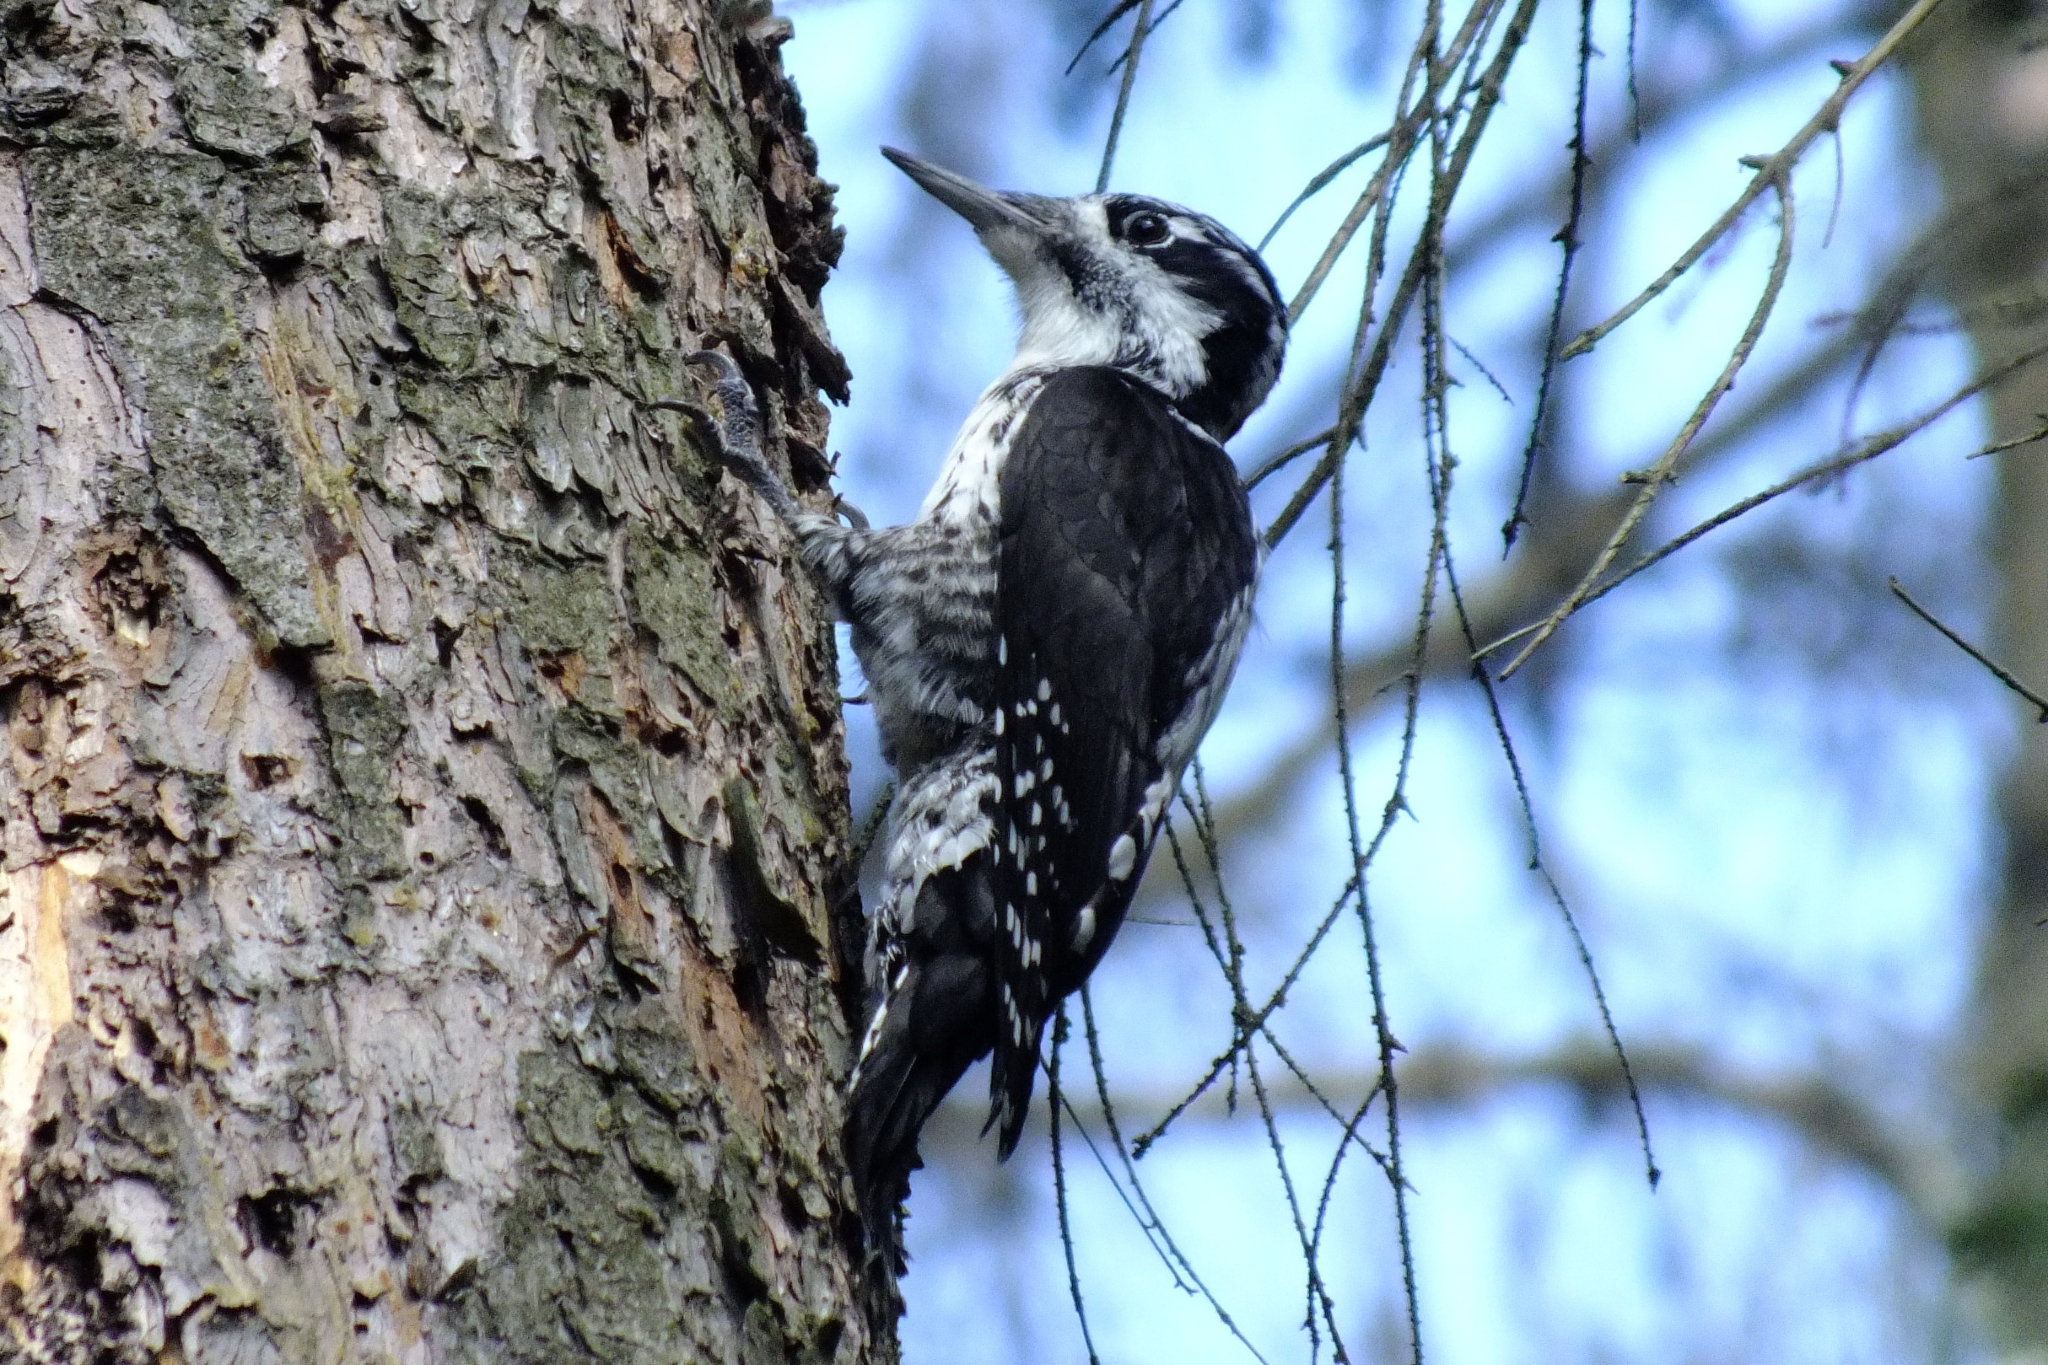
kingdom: Animalia
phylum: Chordata
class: Aves
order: Piciformes
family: Picidae
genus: Picoides
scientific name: Picoides tridactylus
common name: Eurasian three-toed woodpecker
